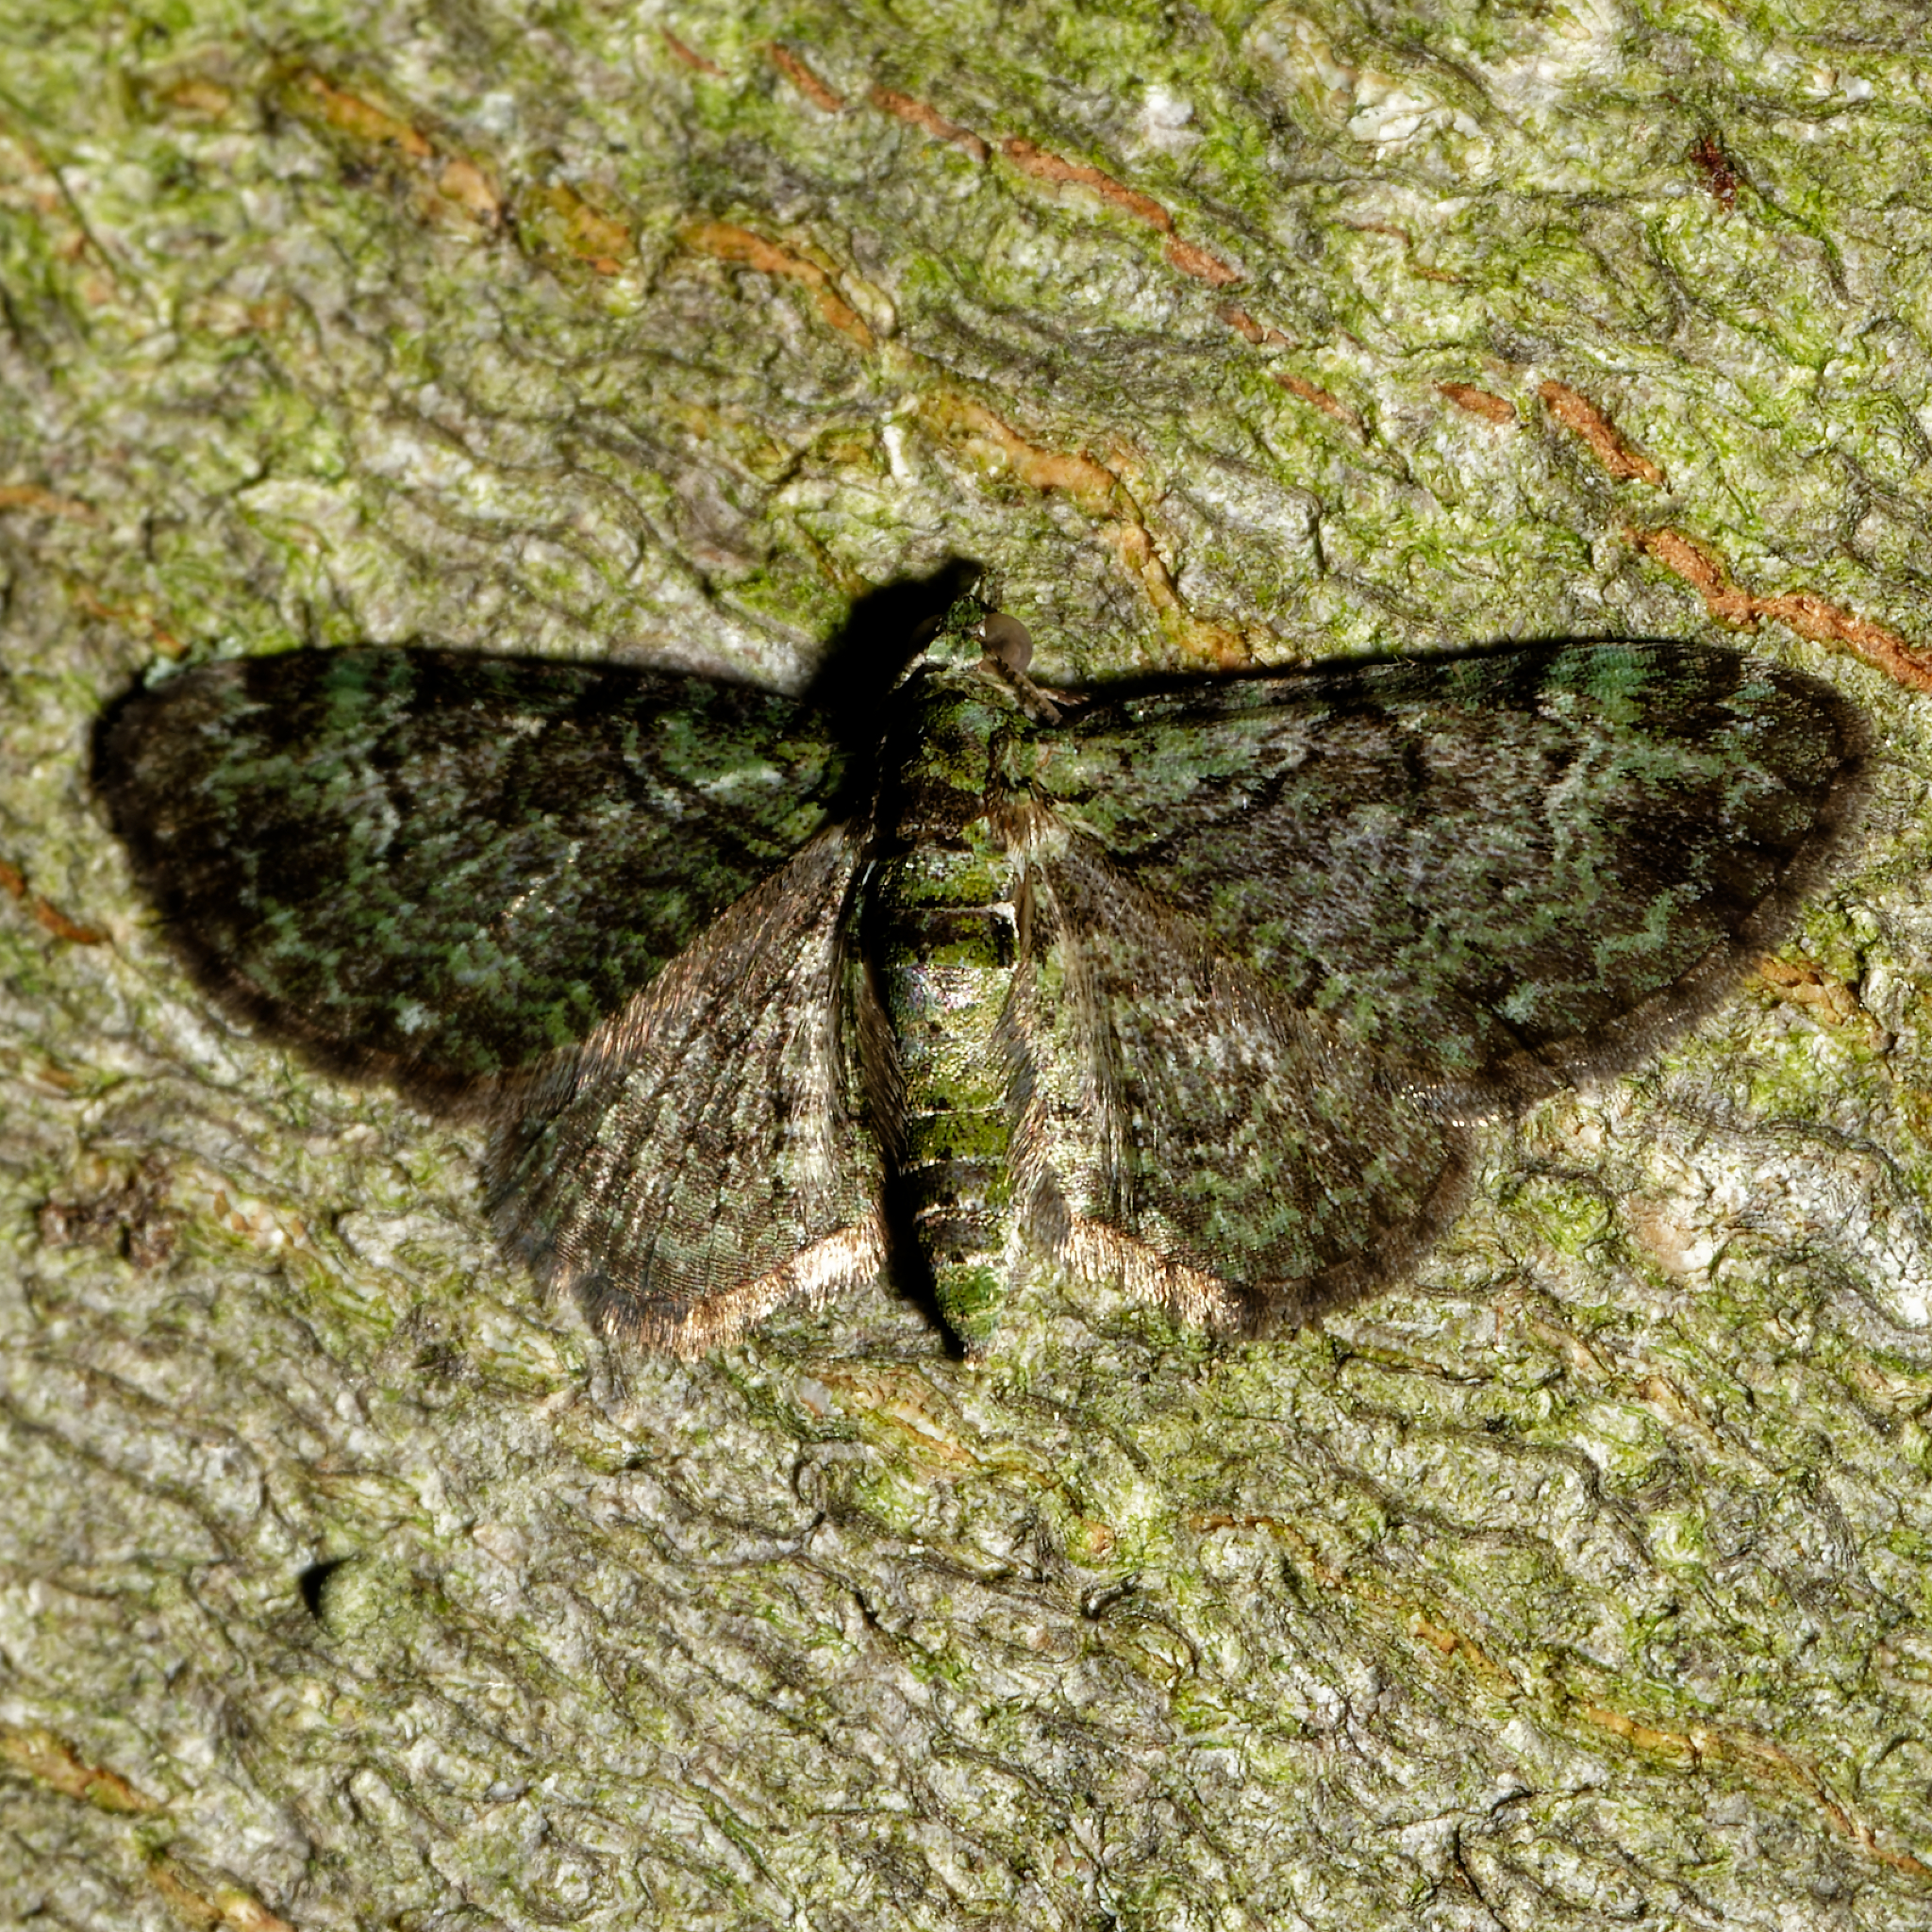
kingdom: Animalia
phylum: Arthropoda
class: Insecta
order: Lepidoptera
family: Geometridae
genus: Pasiphila
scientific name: Pasiphila rectangulata
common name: Green pug
